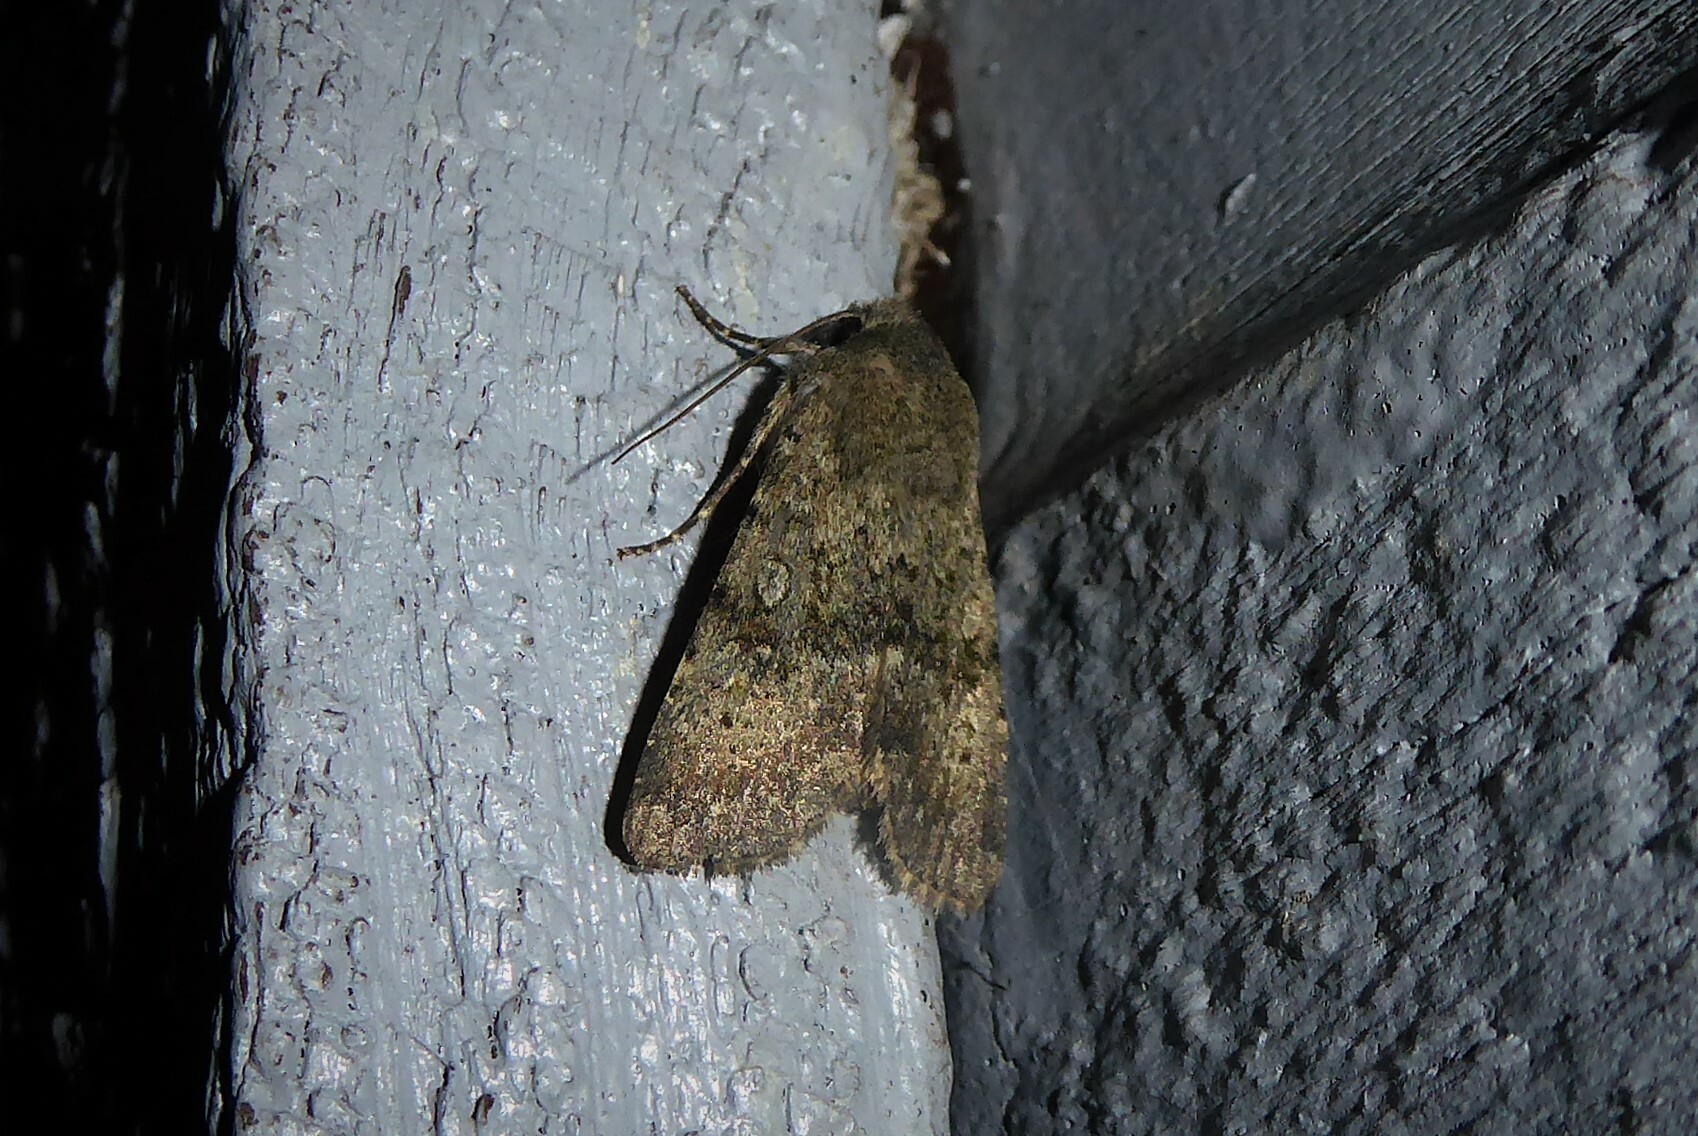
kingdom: Animalia
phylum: Arthropoda
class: Insecta
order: Lepidoptera
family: Noctuidae
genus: Ichneutica
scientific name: Ichneutica moderata
